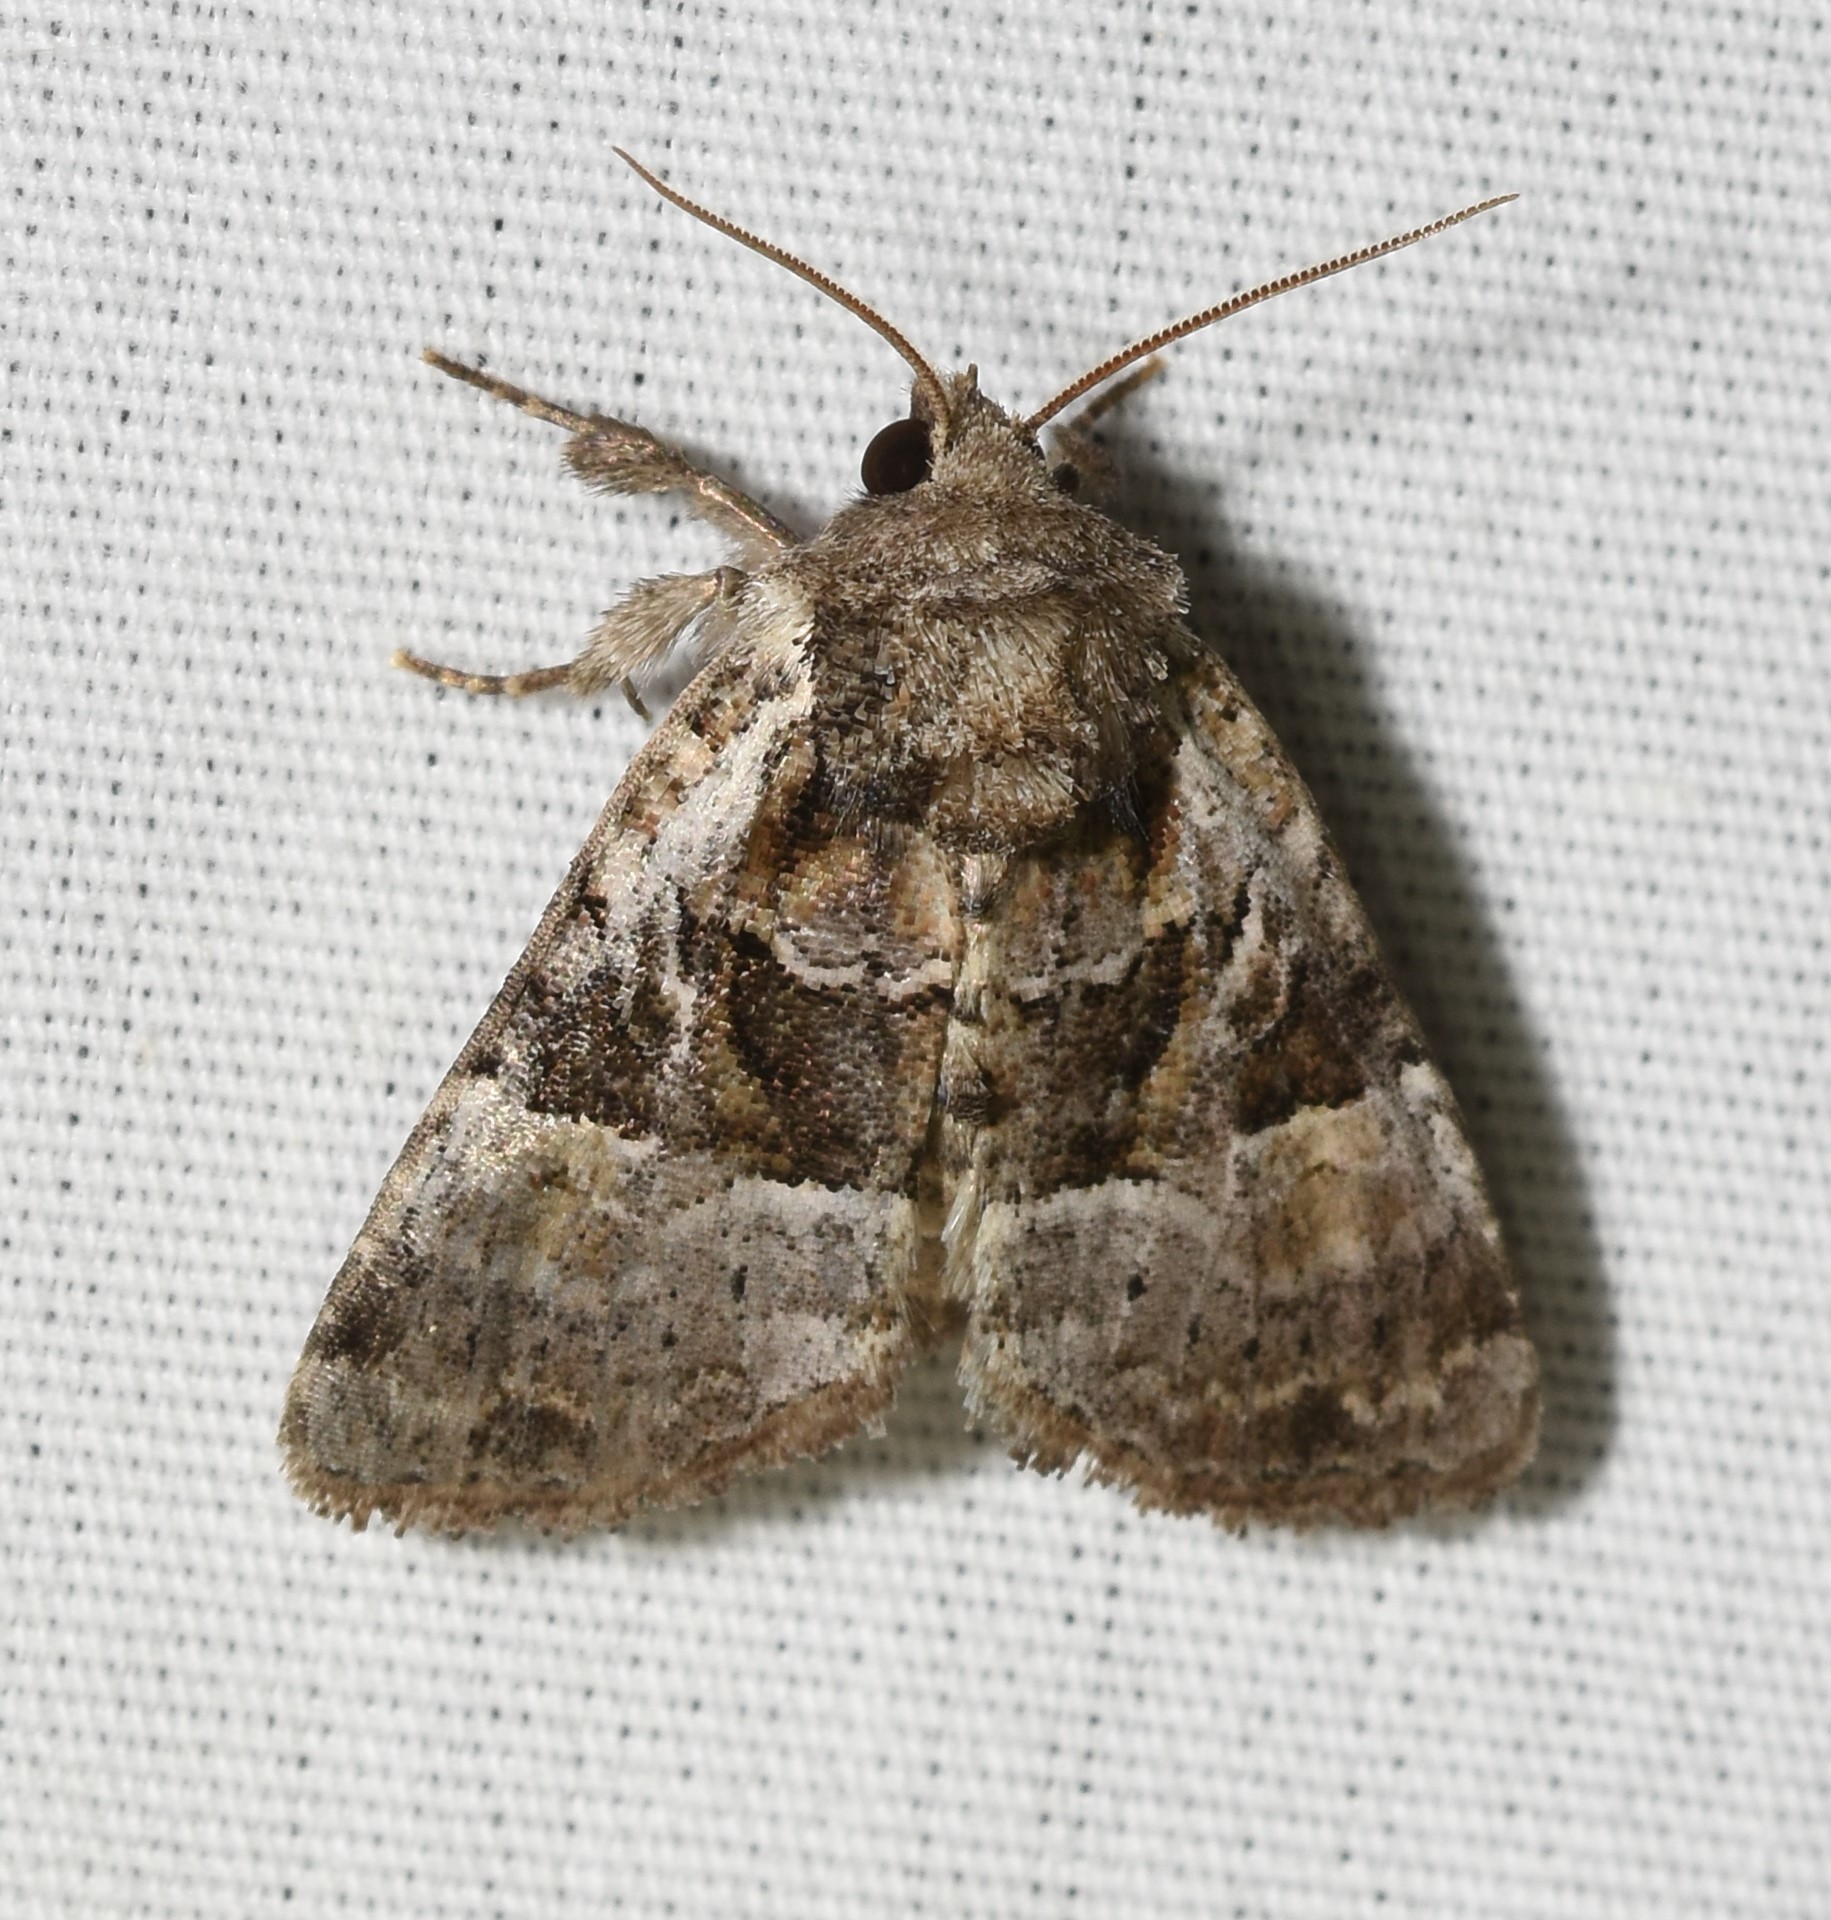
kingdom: Animalia
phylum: Arthropoda
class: Insecta
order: Lepidoptera
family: Noctuidae
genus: Meropleon
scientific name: Meropleon diversicolor
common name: Multicolored sedgeminer moth
